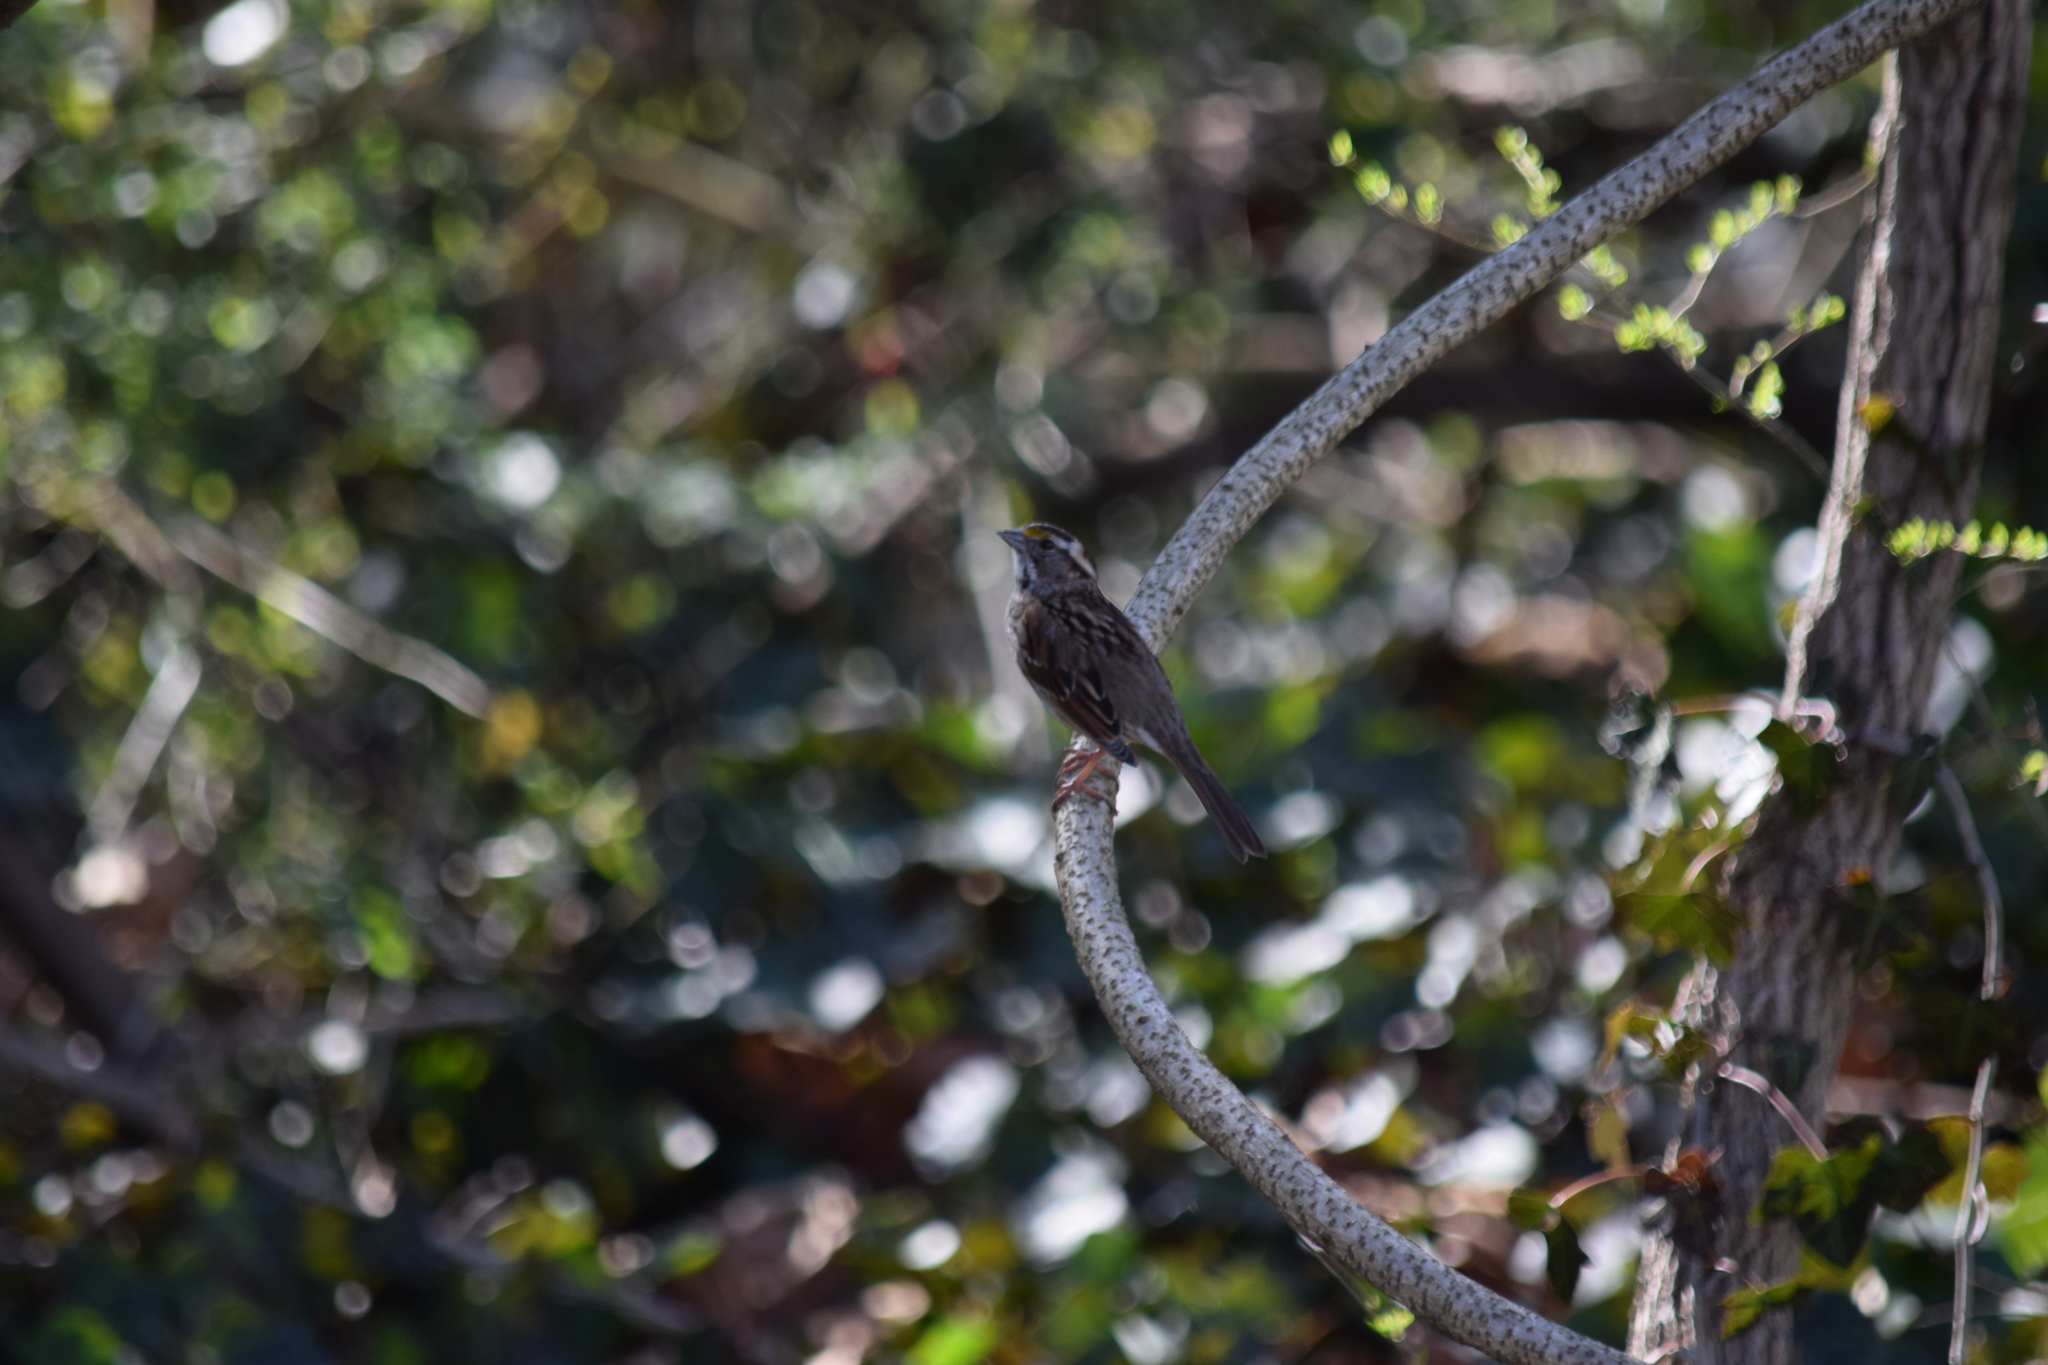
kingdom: Animalia
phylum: Chordata
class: Aves
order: Passeriformes
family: Passerellidae
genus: Zonotrichia
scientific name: Zonotrichia albicollis
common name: White-throated sparrow
